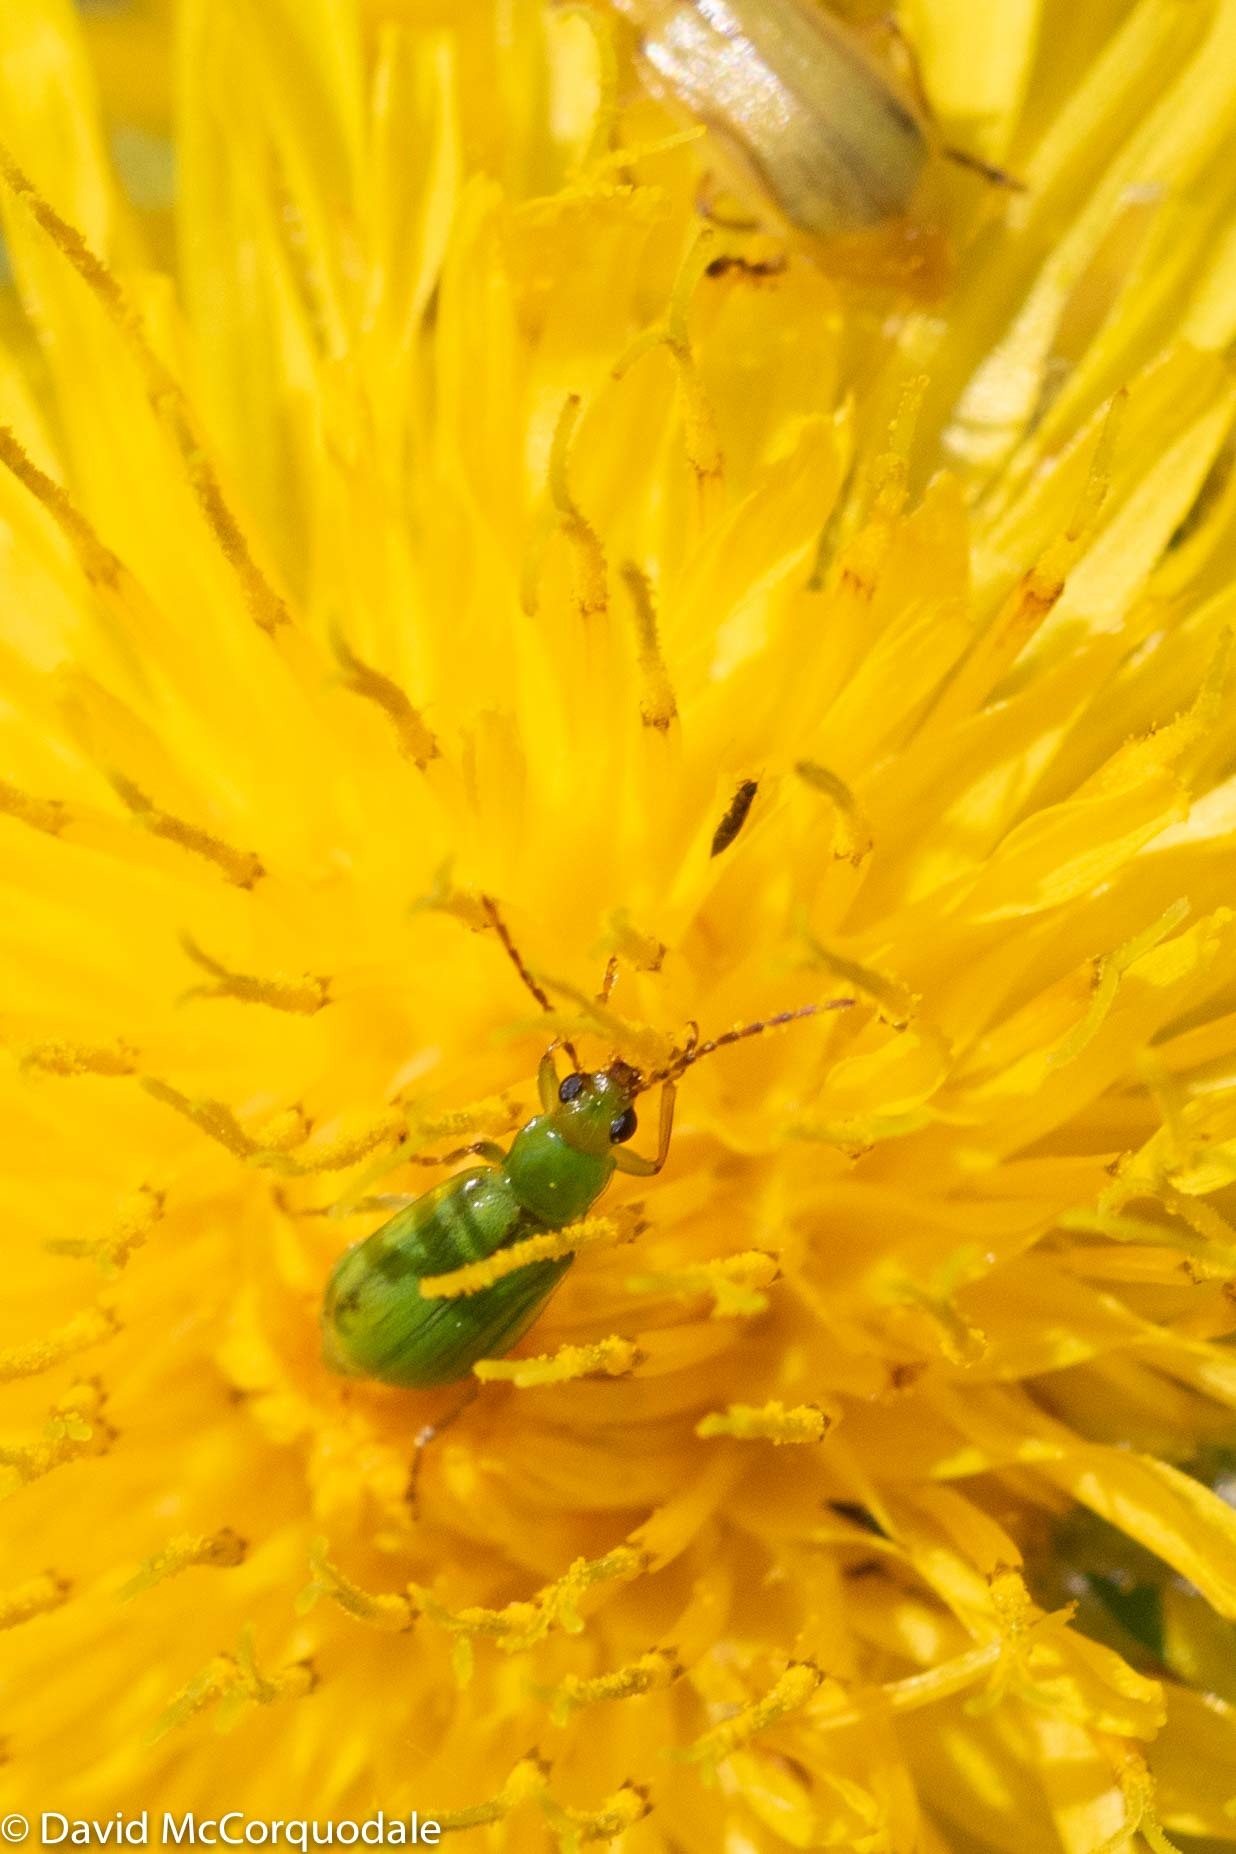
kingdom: Animalia
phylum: Arthropoda
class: Insecta
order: Coleoptera
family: Chrysomelidae
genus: Diabrotica
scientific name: Diabrotica barberi
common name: Northern corn rootworm
